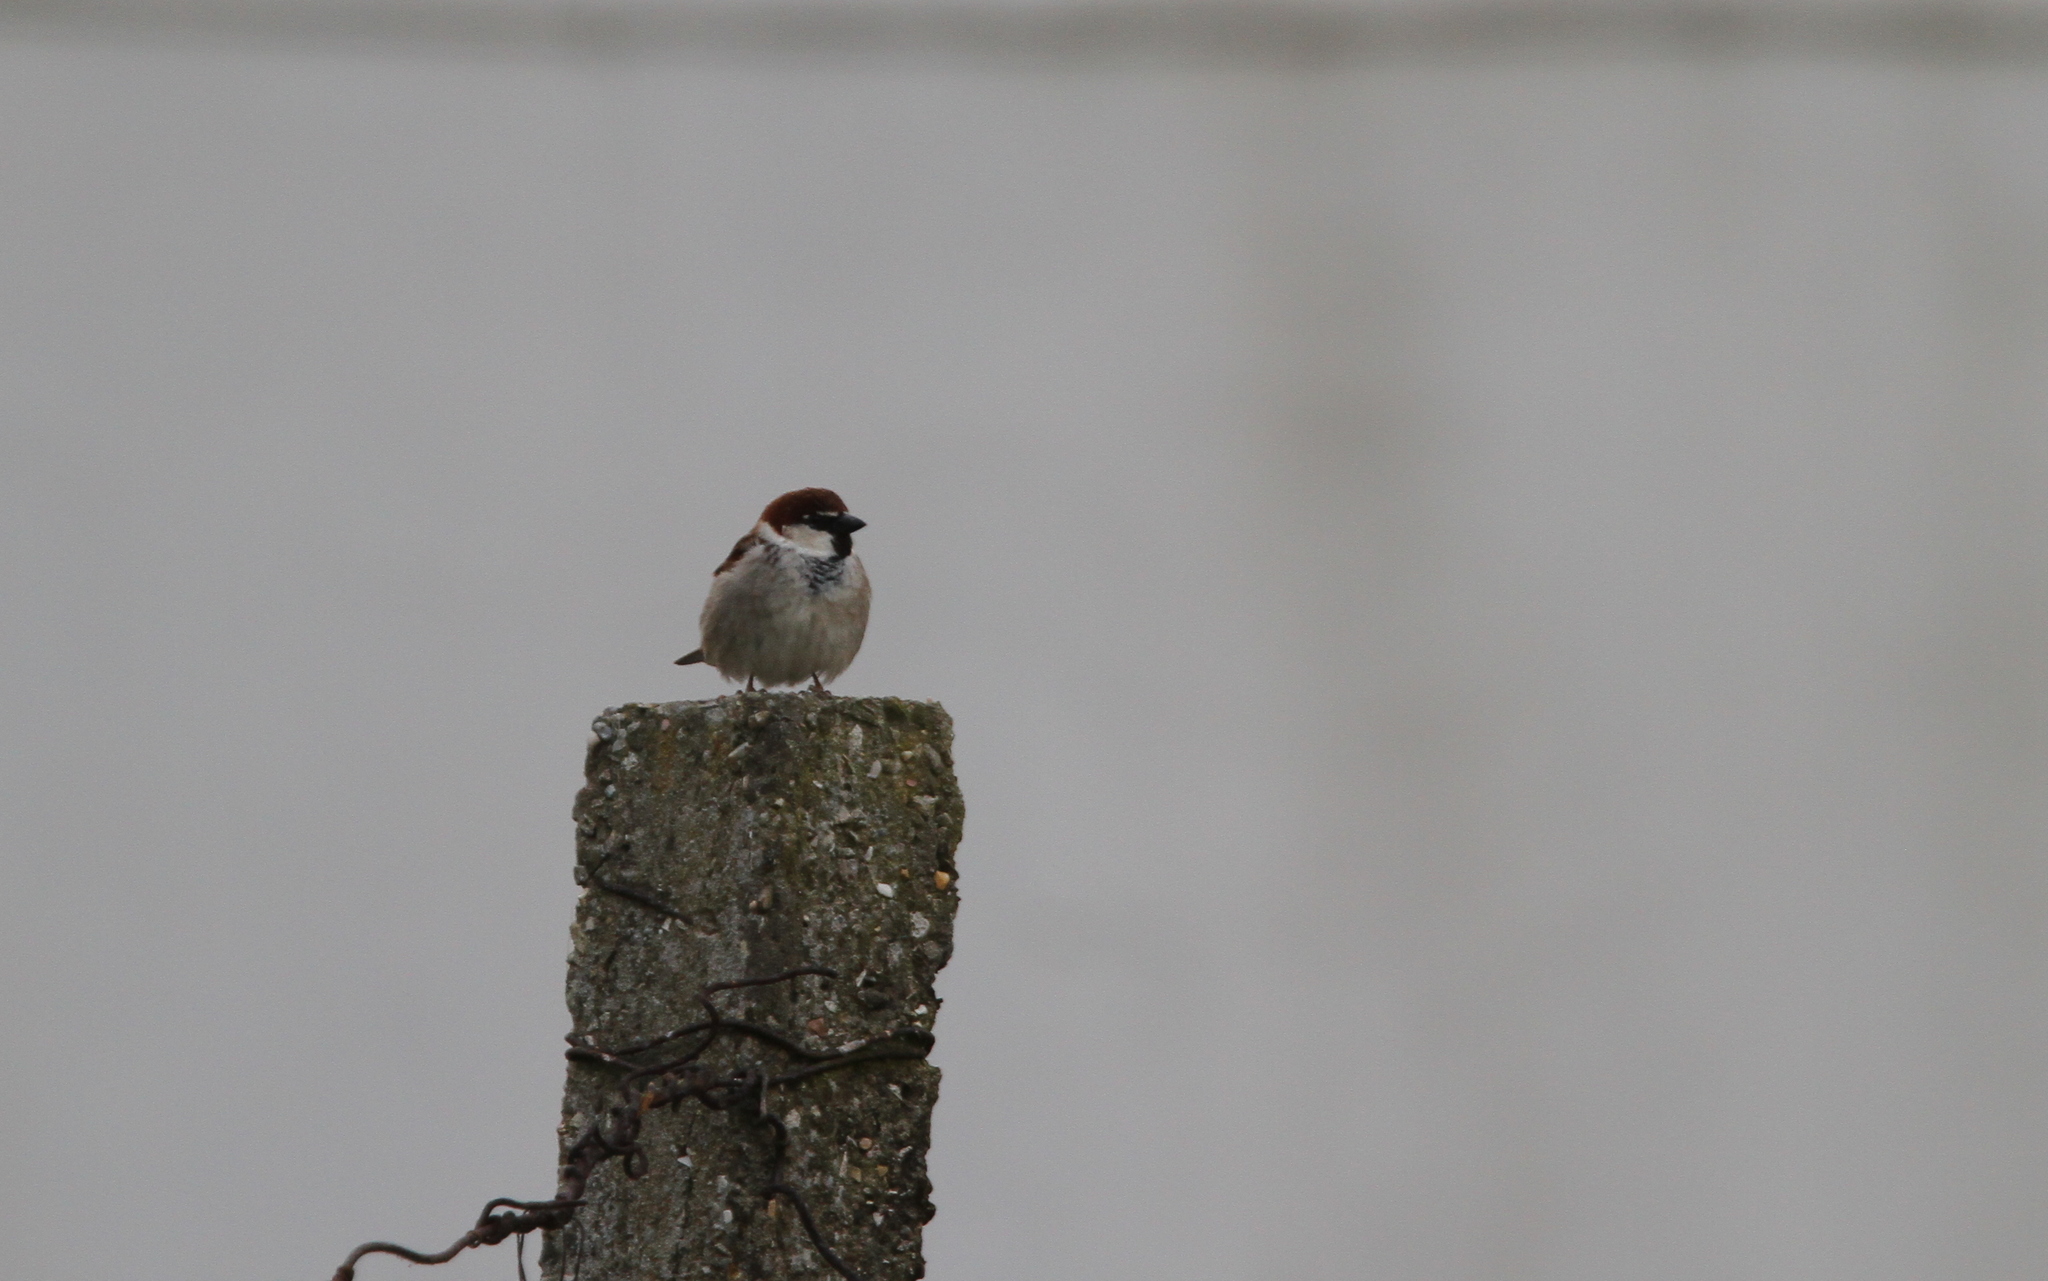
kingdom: Animalia
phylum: Chordata
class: Aves
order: Passeriformes
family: Passeridae
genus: Passer
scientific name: Passer italiae
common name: Italian sparrow
